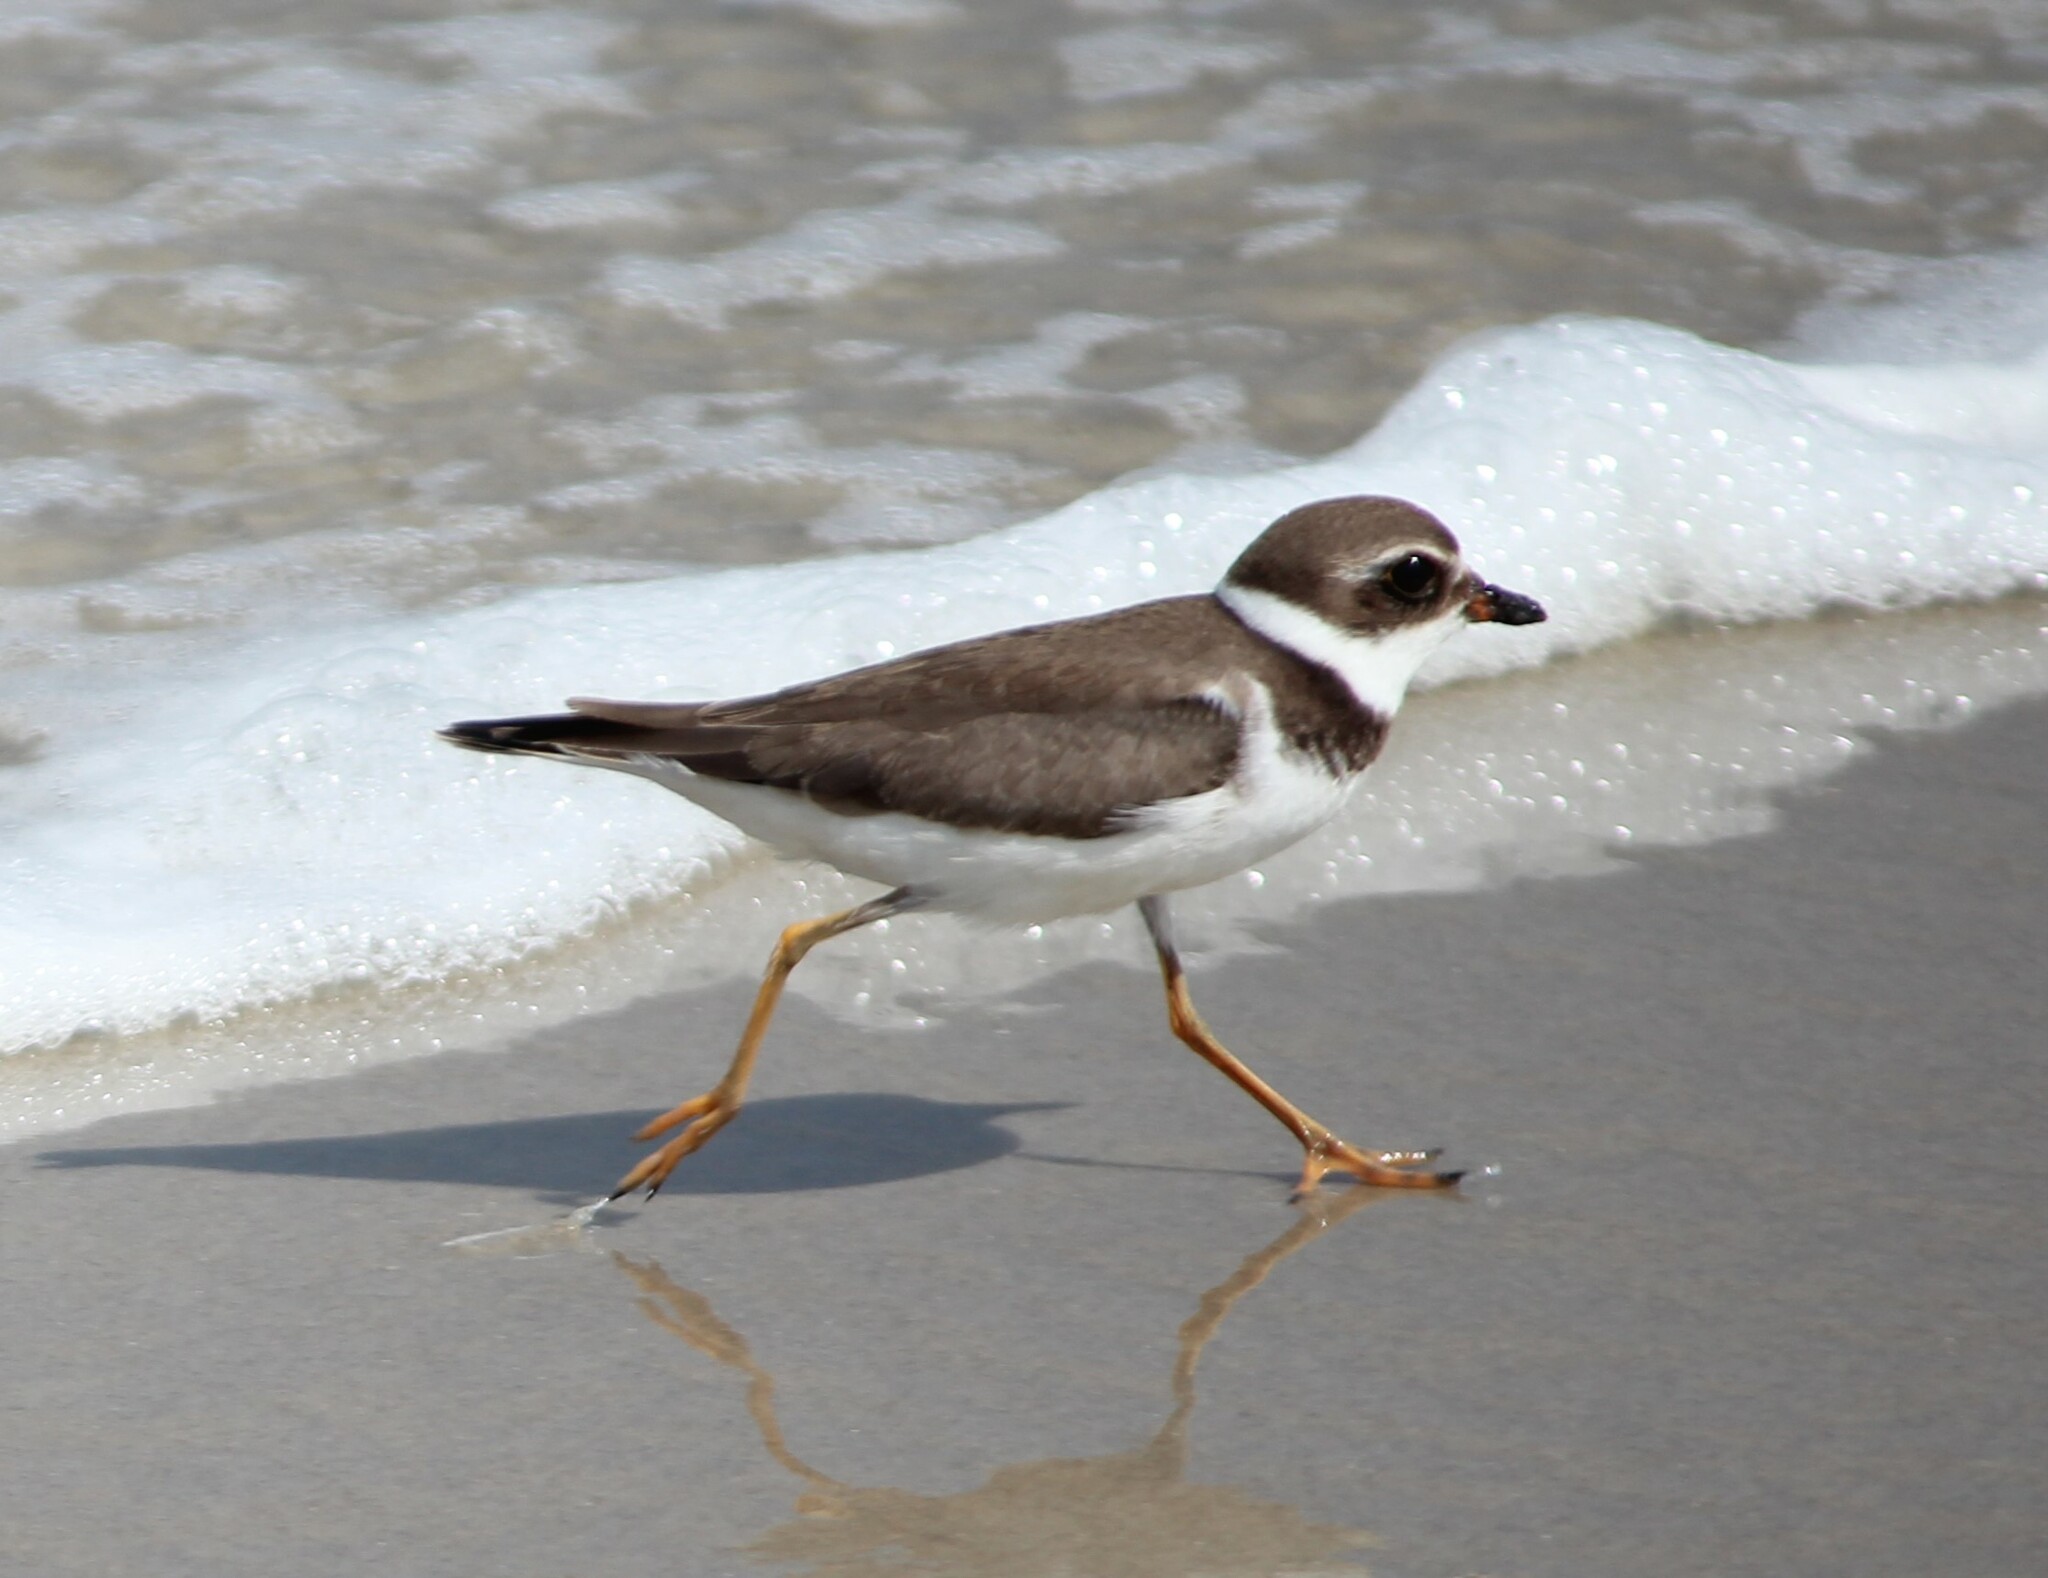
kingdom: Animalia
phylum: Chordata
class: Aves
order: Charadriiformes
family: Charadriidae
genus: Charadrius
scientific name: Charadrius semipalmatus
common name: Semipalmated plover
